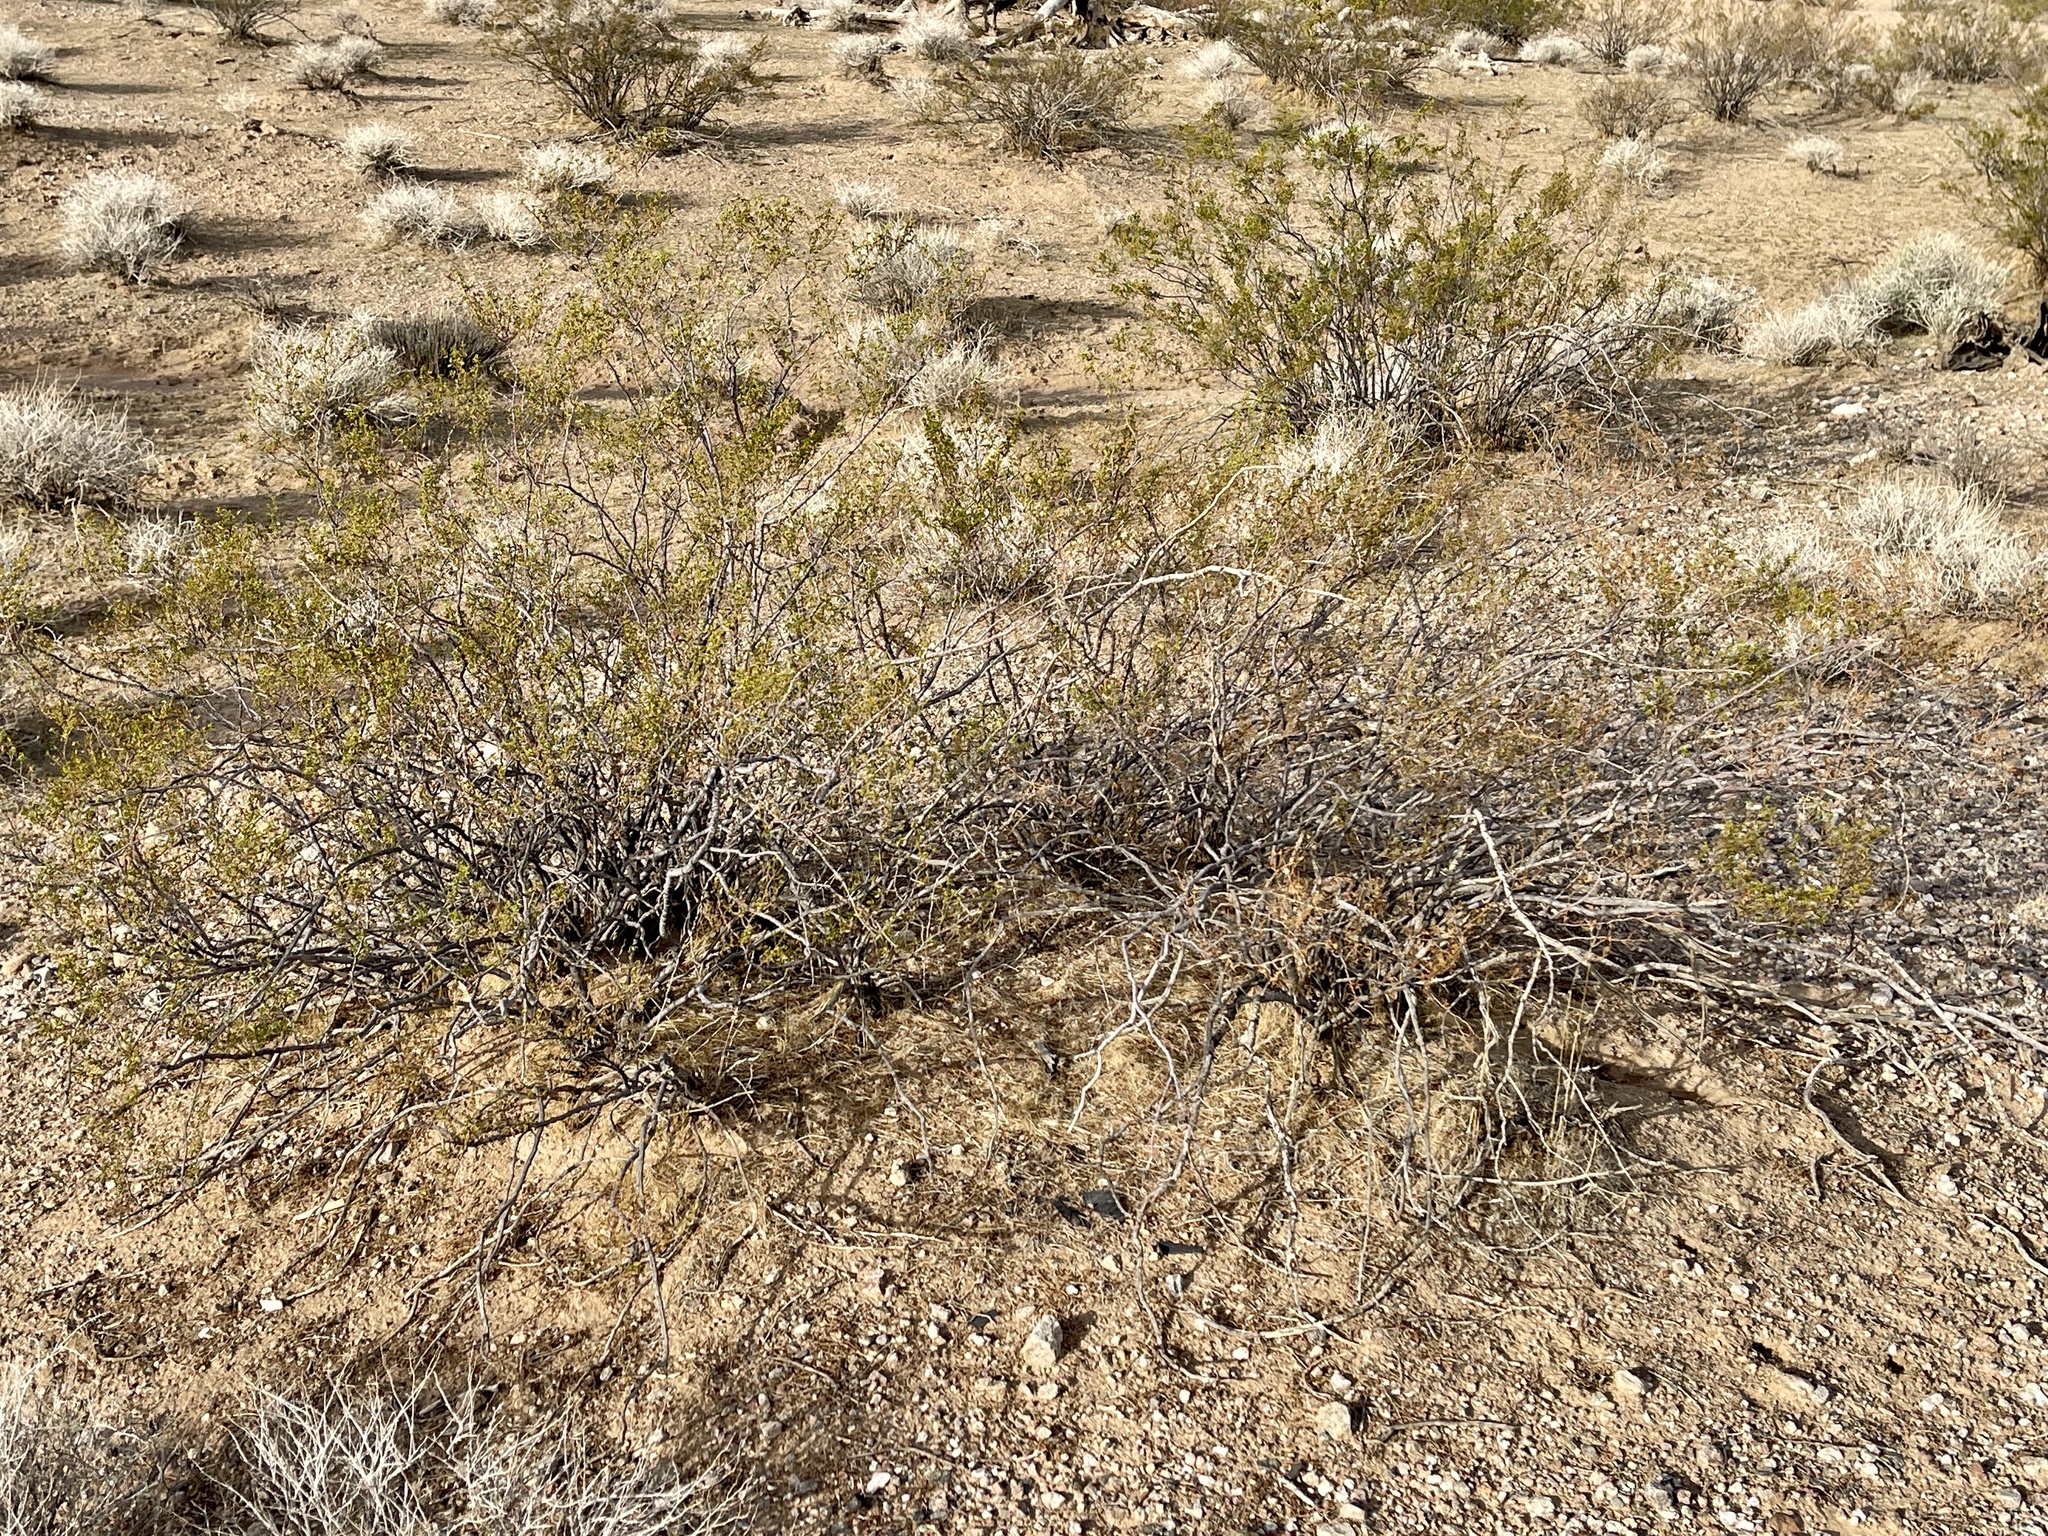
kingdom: Plantae
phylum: Tracheophyta
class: Magnoliopsida
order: Zygophyllales
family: Zygophyllaceae
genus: Larrea
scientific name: Larrea tridentata
